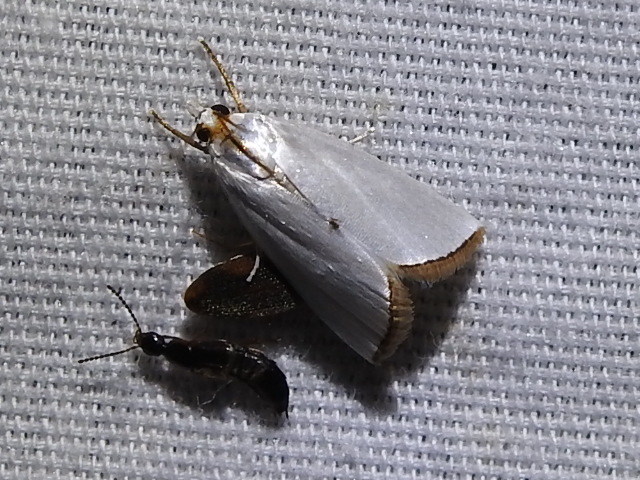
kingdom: Animalia
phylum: Arthropoda
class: Insecta
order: Lepidoptera
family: Crambidae
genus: Argyria
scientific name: Argyria nivalis
